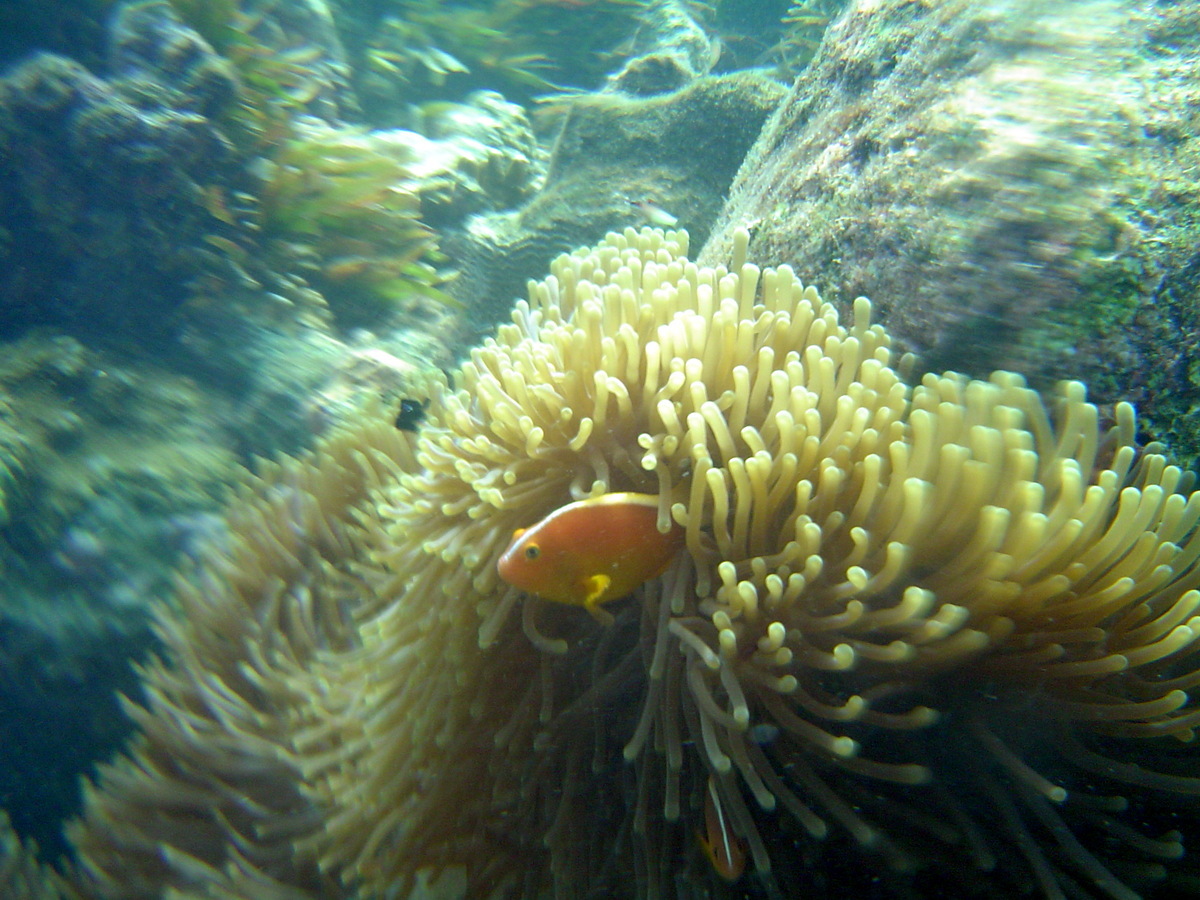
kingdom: Animalia
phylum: Chordata
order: Perciformes
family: Pomacentridae
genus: Amphiprion
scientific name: Amphiprion akallopisos
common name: Skunk clownfish
